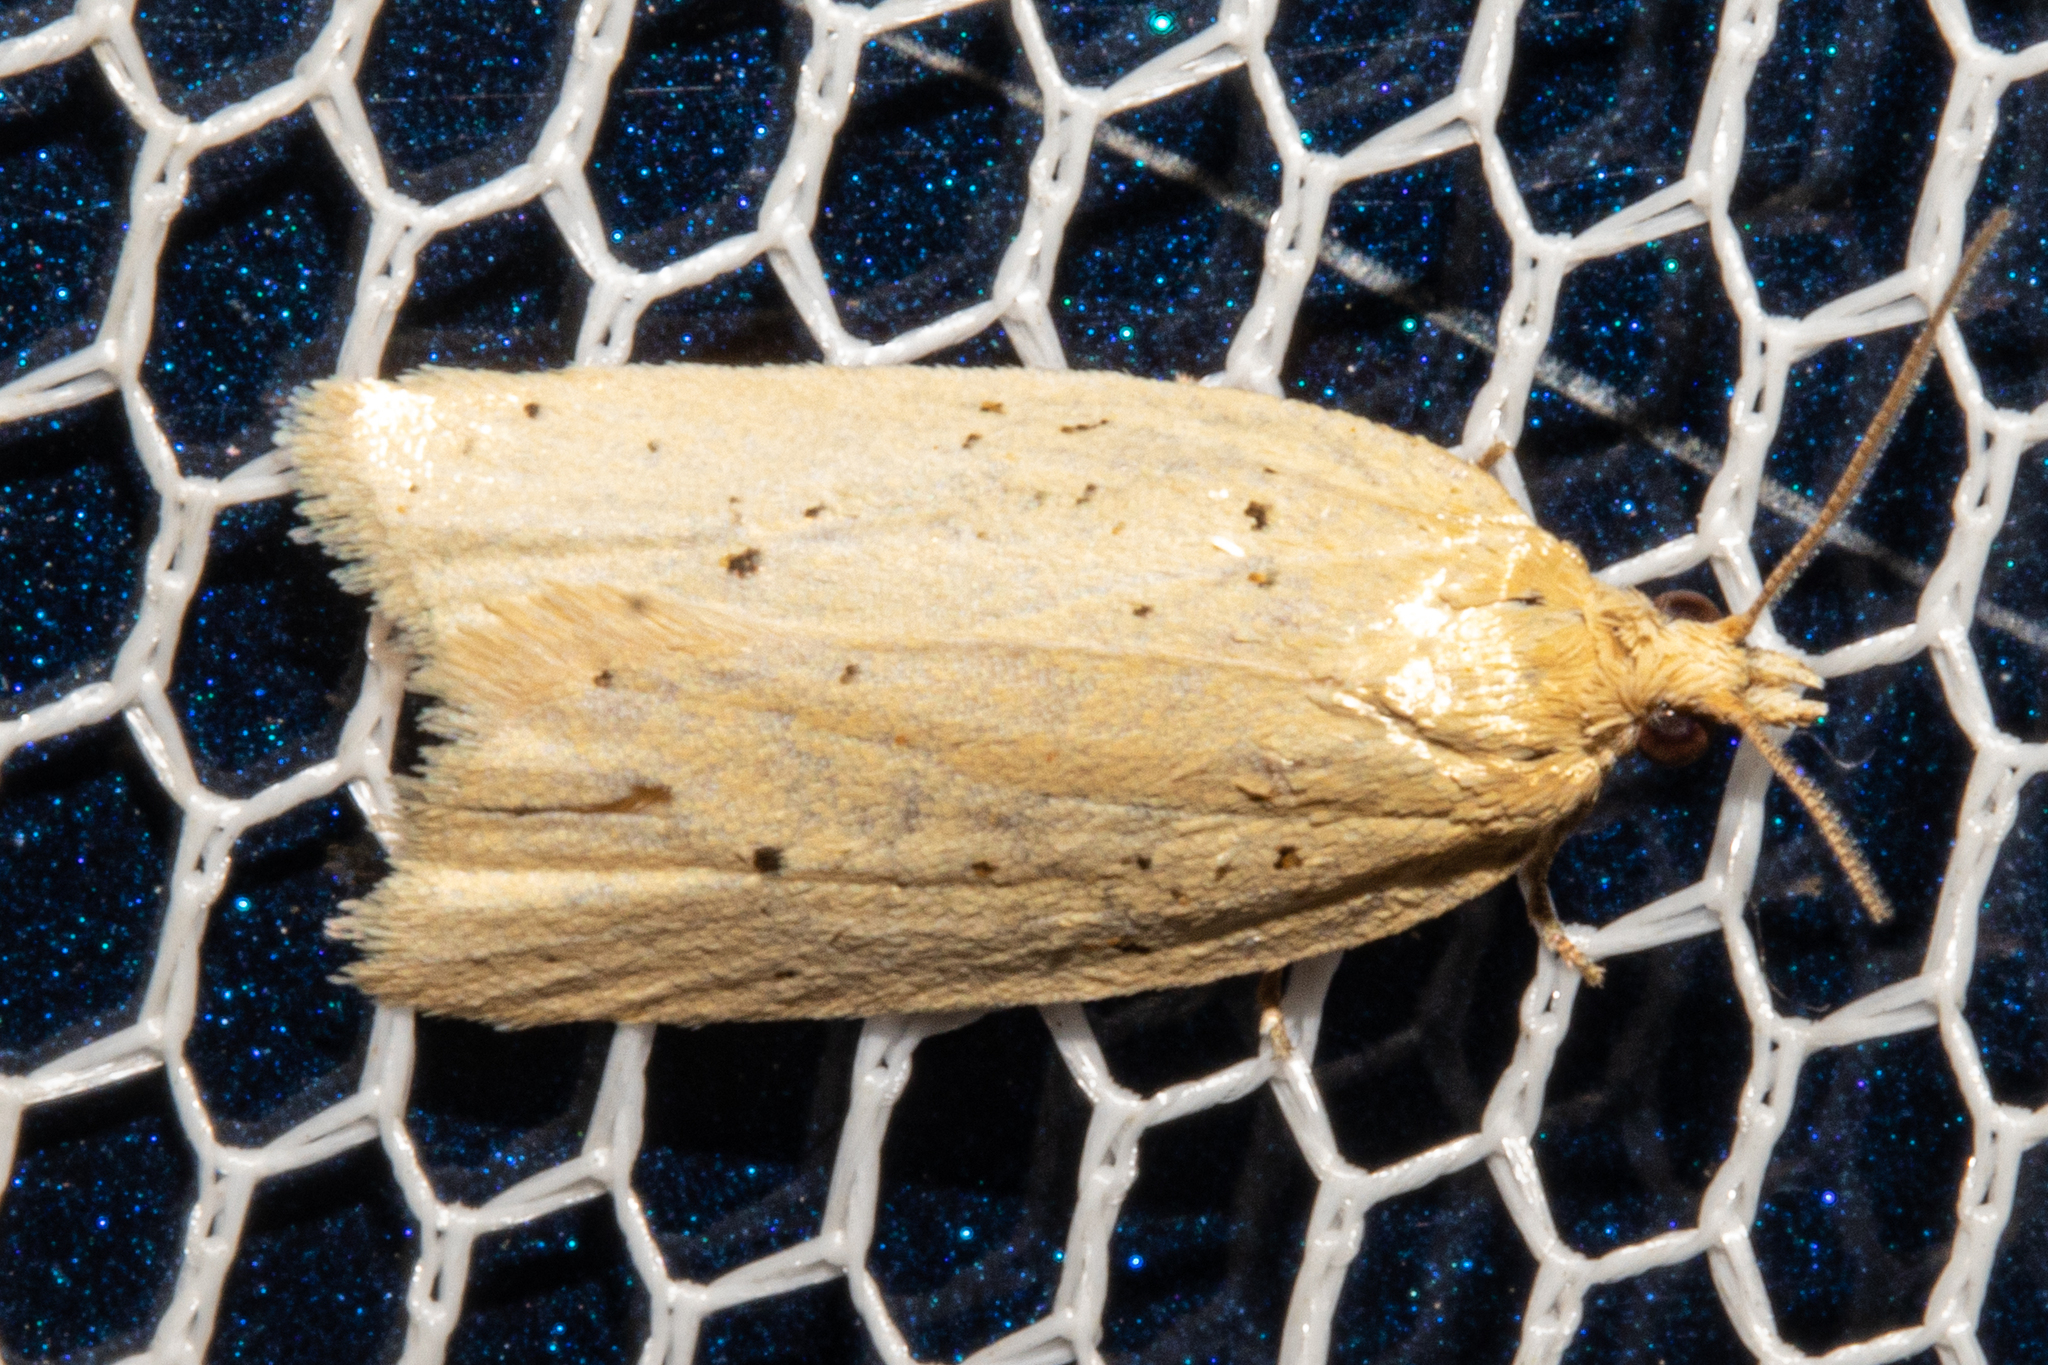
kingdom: Animalia
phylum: Arthropoda
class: Insecta
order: Lepidoptera
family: Tortricidae
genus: Clepsis
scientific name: Clepsis
